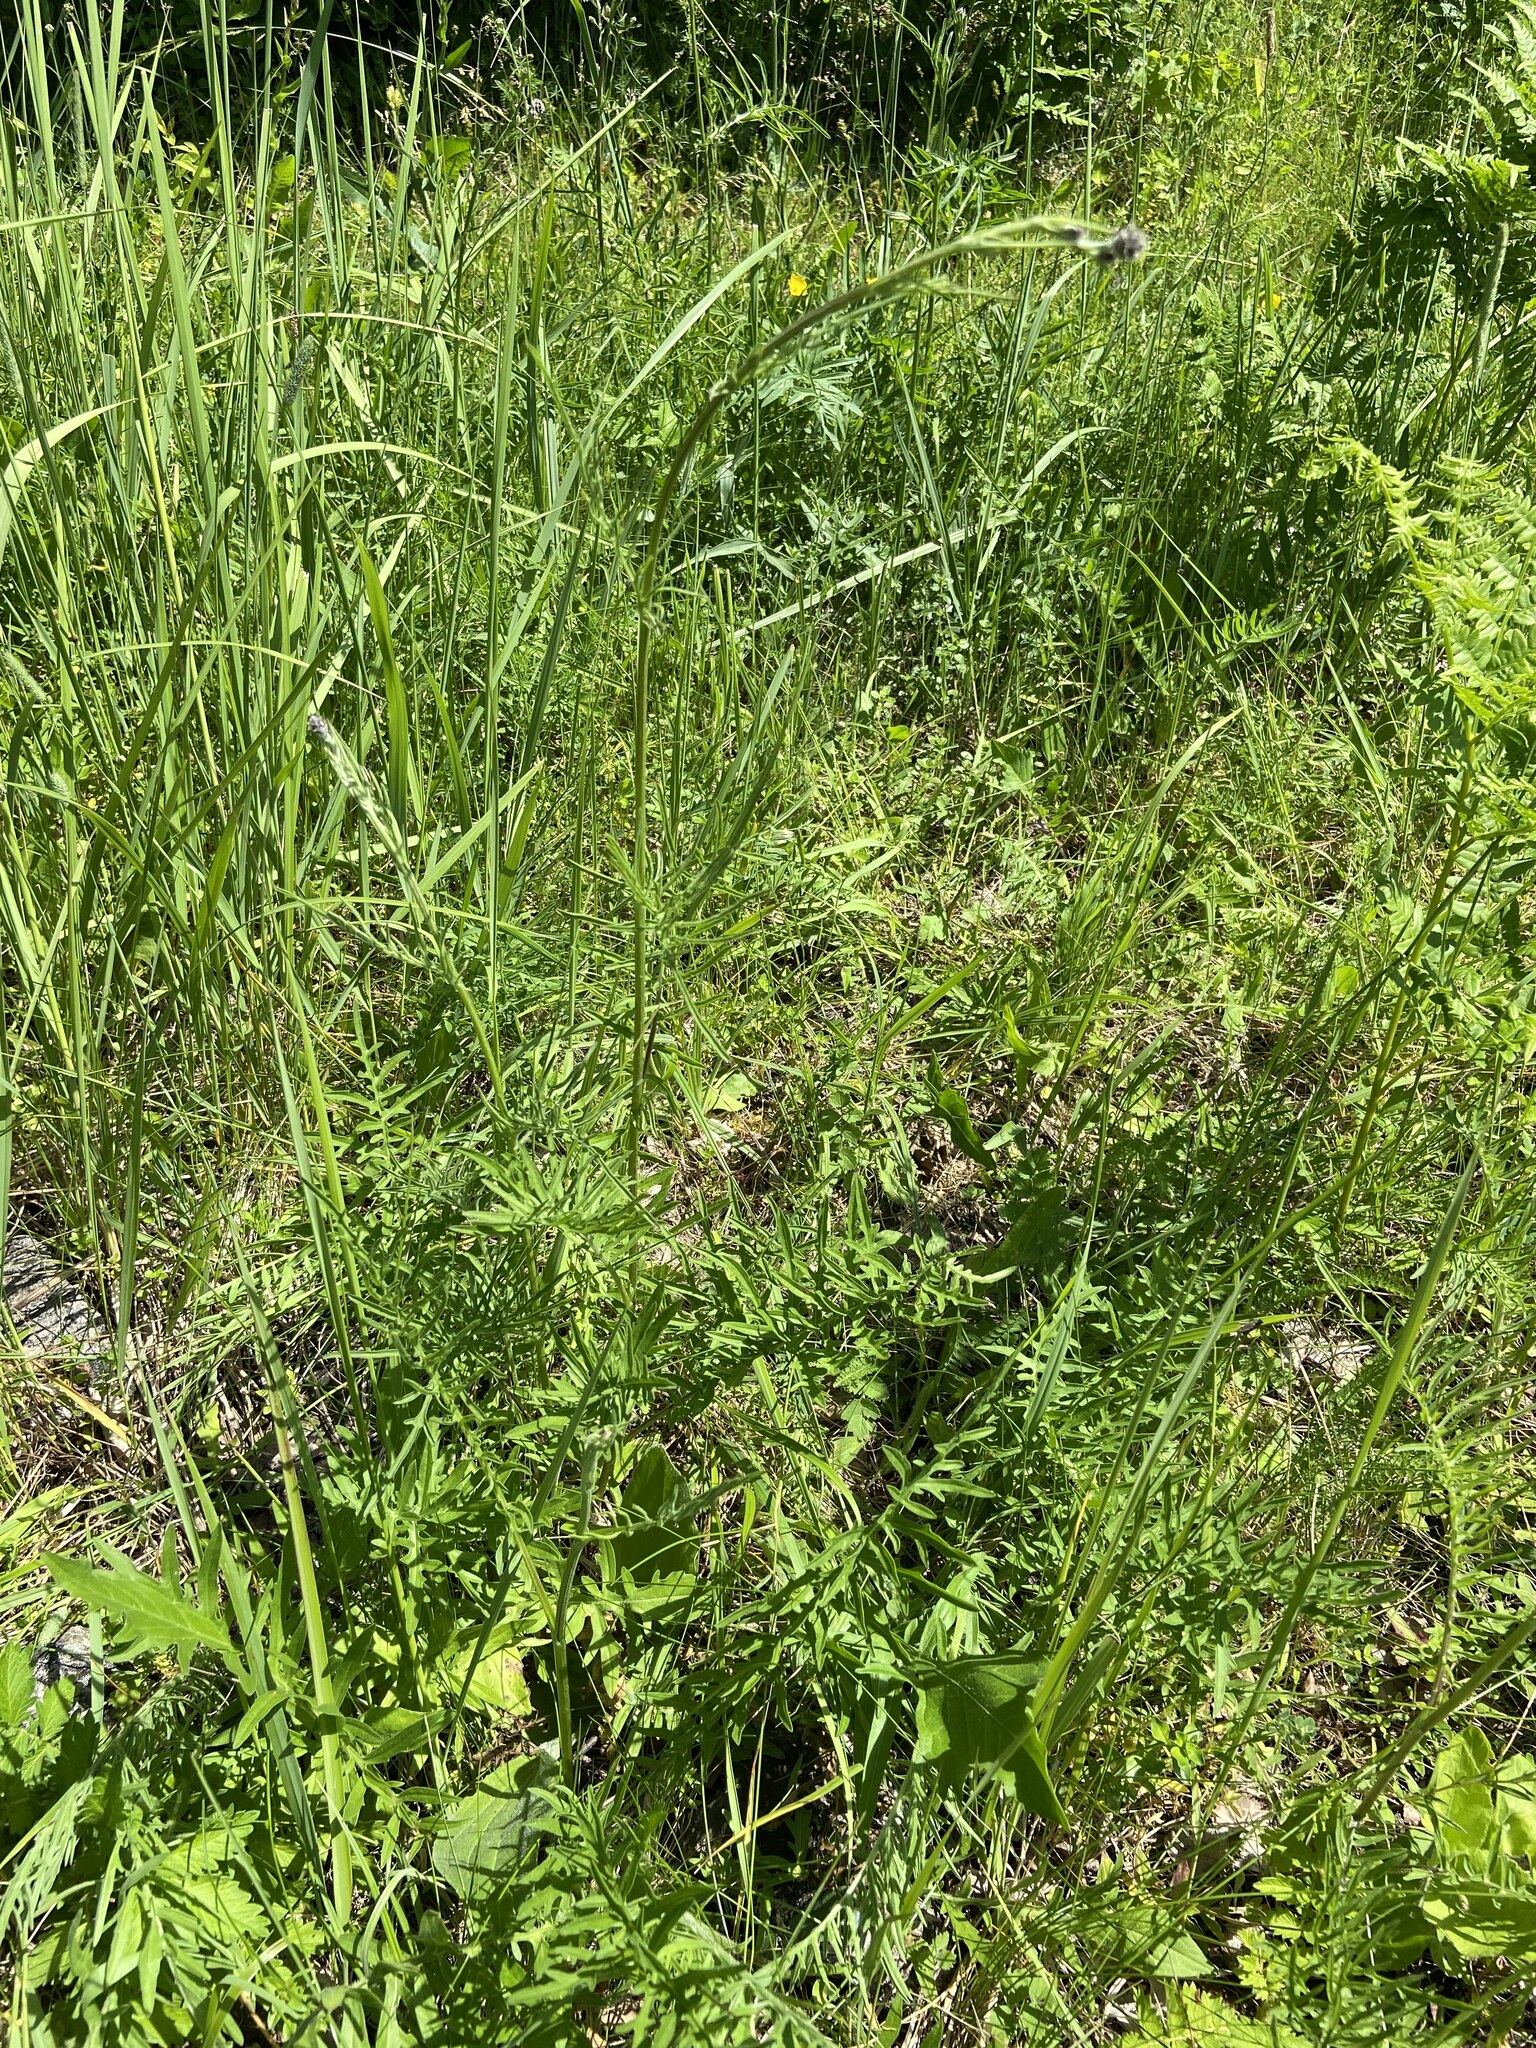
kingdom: Plantae
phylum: Tracheophyta
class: Magnoliopsida
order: Asterales
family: Asteraceae
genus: Centaurea
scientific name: Centaurea scabiosa
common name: Greater knapweed
